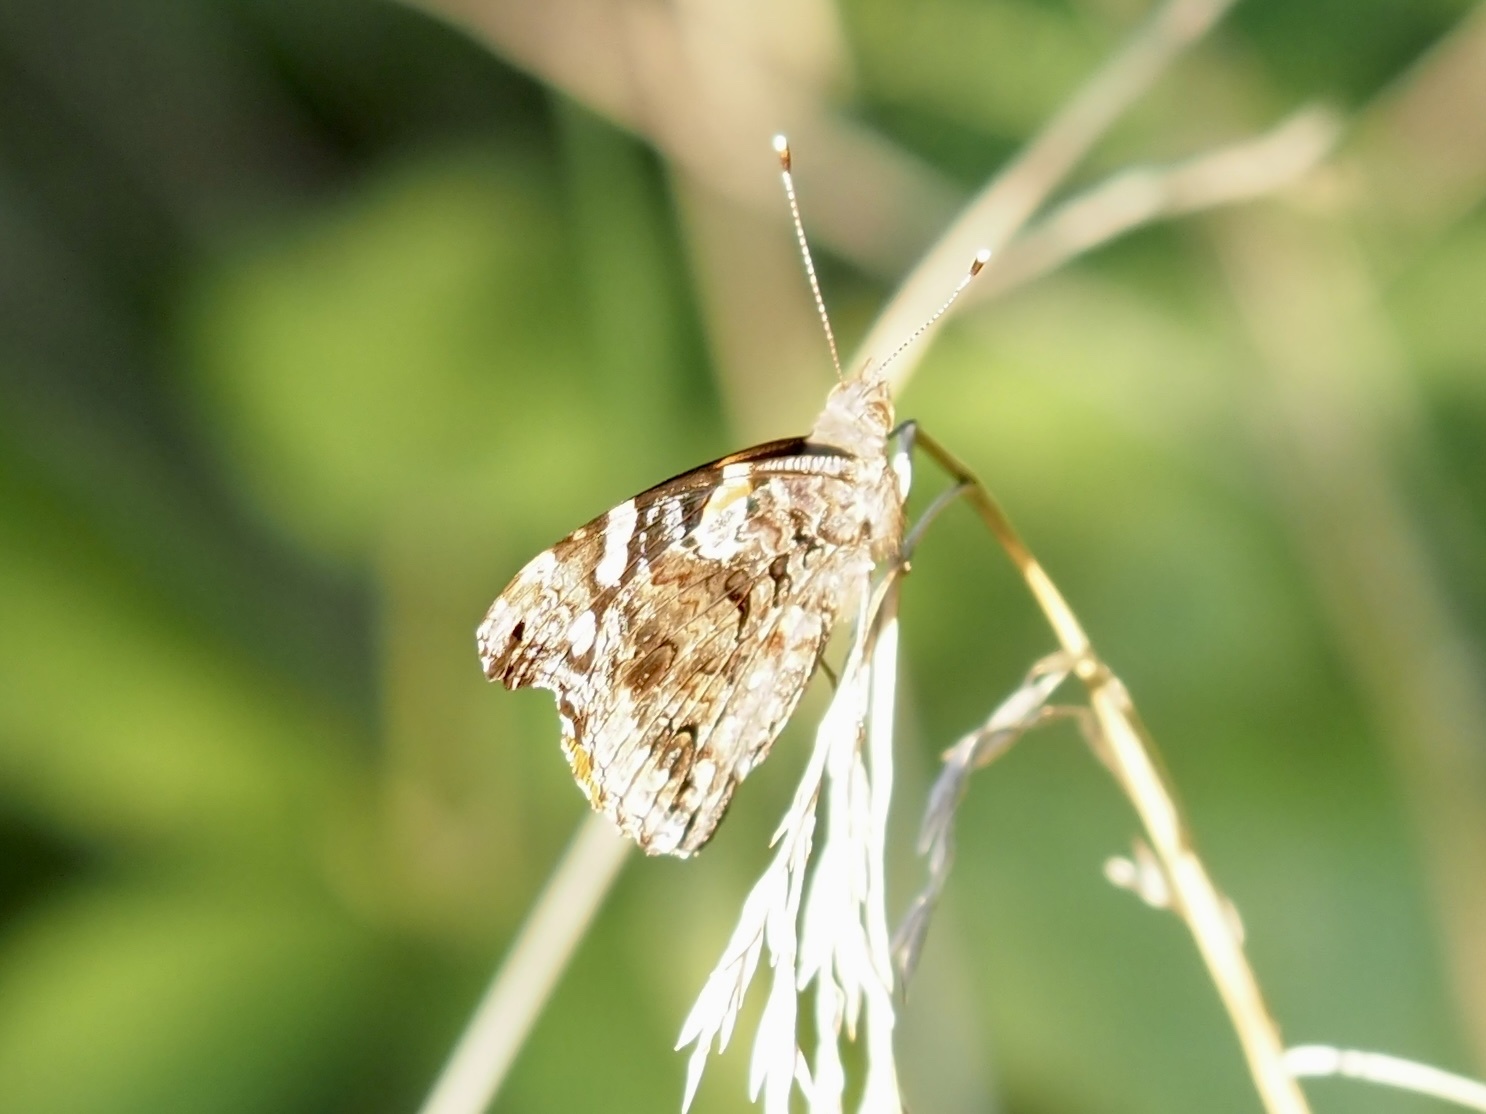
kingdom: Animalia
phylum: Arthropoda
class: Insecta
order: Lepidoptera
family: Nymphalidae
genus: Vanessa
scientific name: Vanessa atalanta
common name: Red admiral
